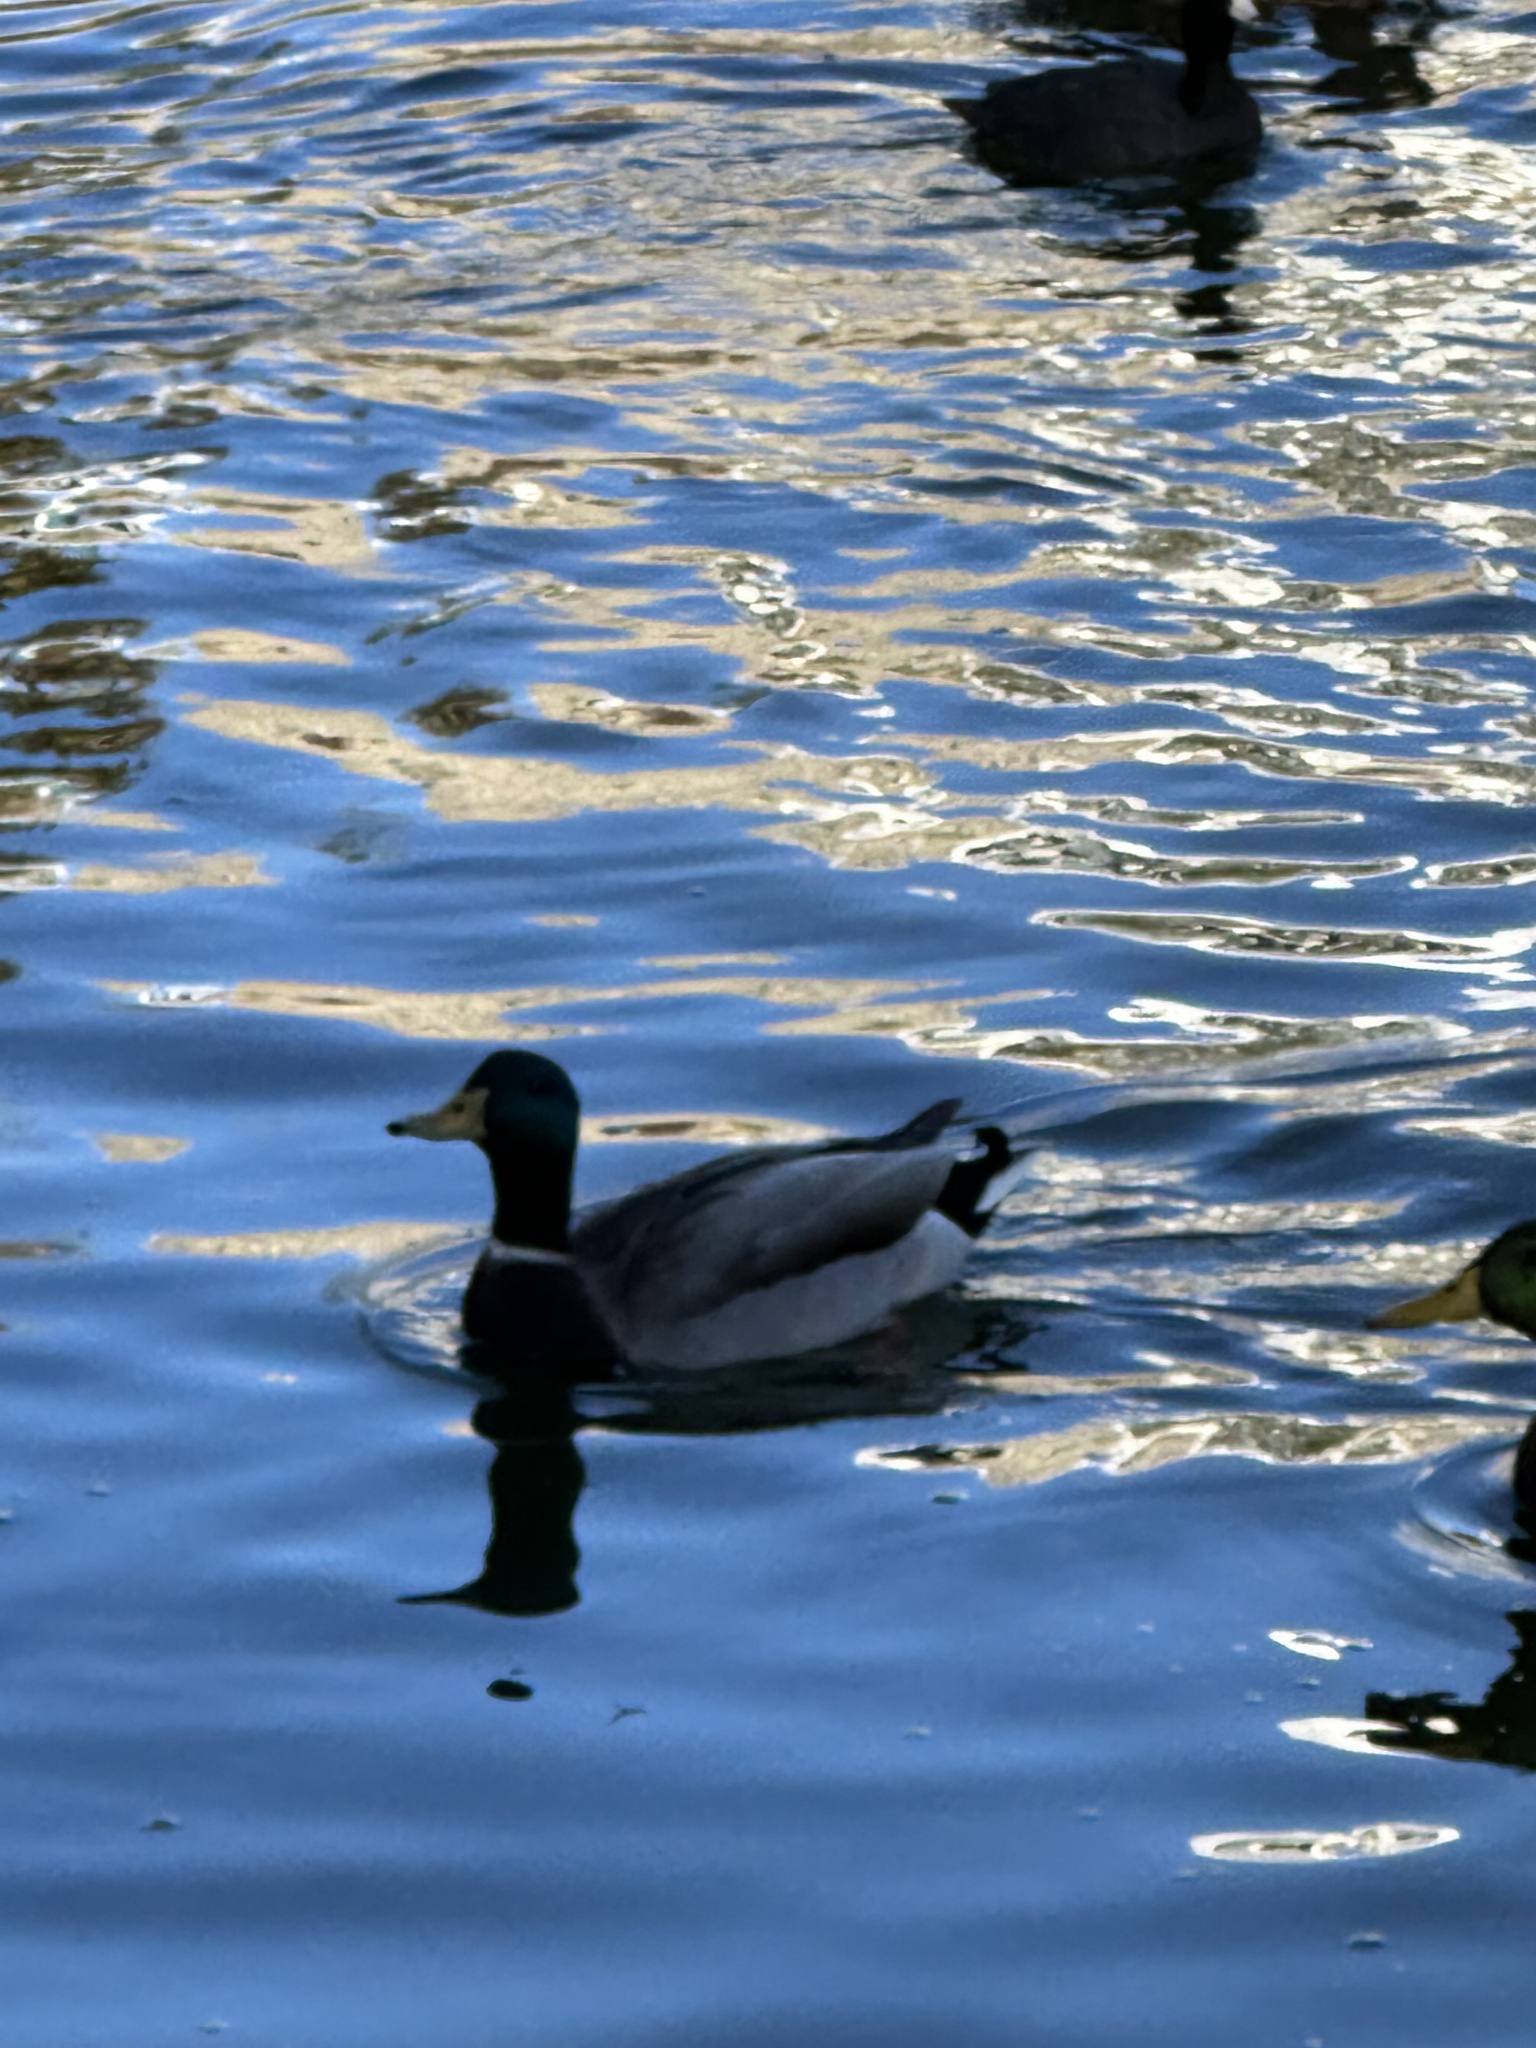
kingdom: Animalia
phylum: Chordata
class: Aves
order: Anseriformes
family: Anatidae
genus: Anas
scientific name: Anas platyrhynchos
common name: Mallard
